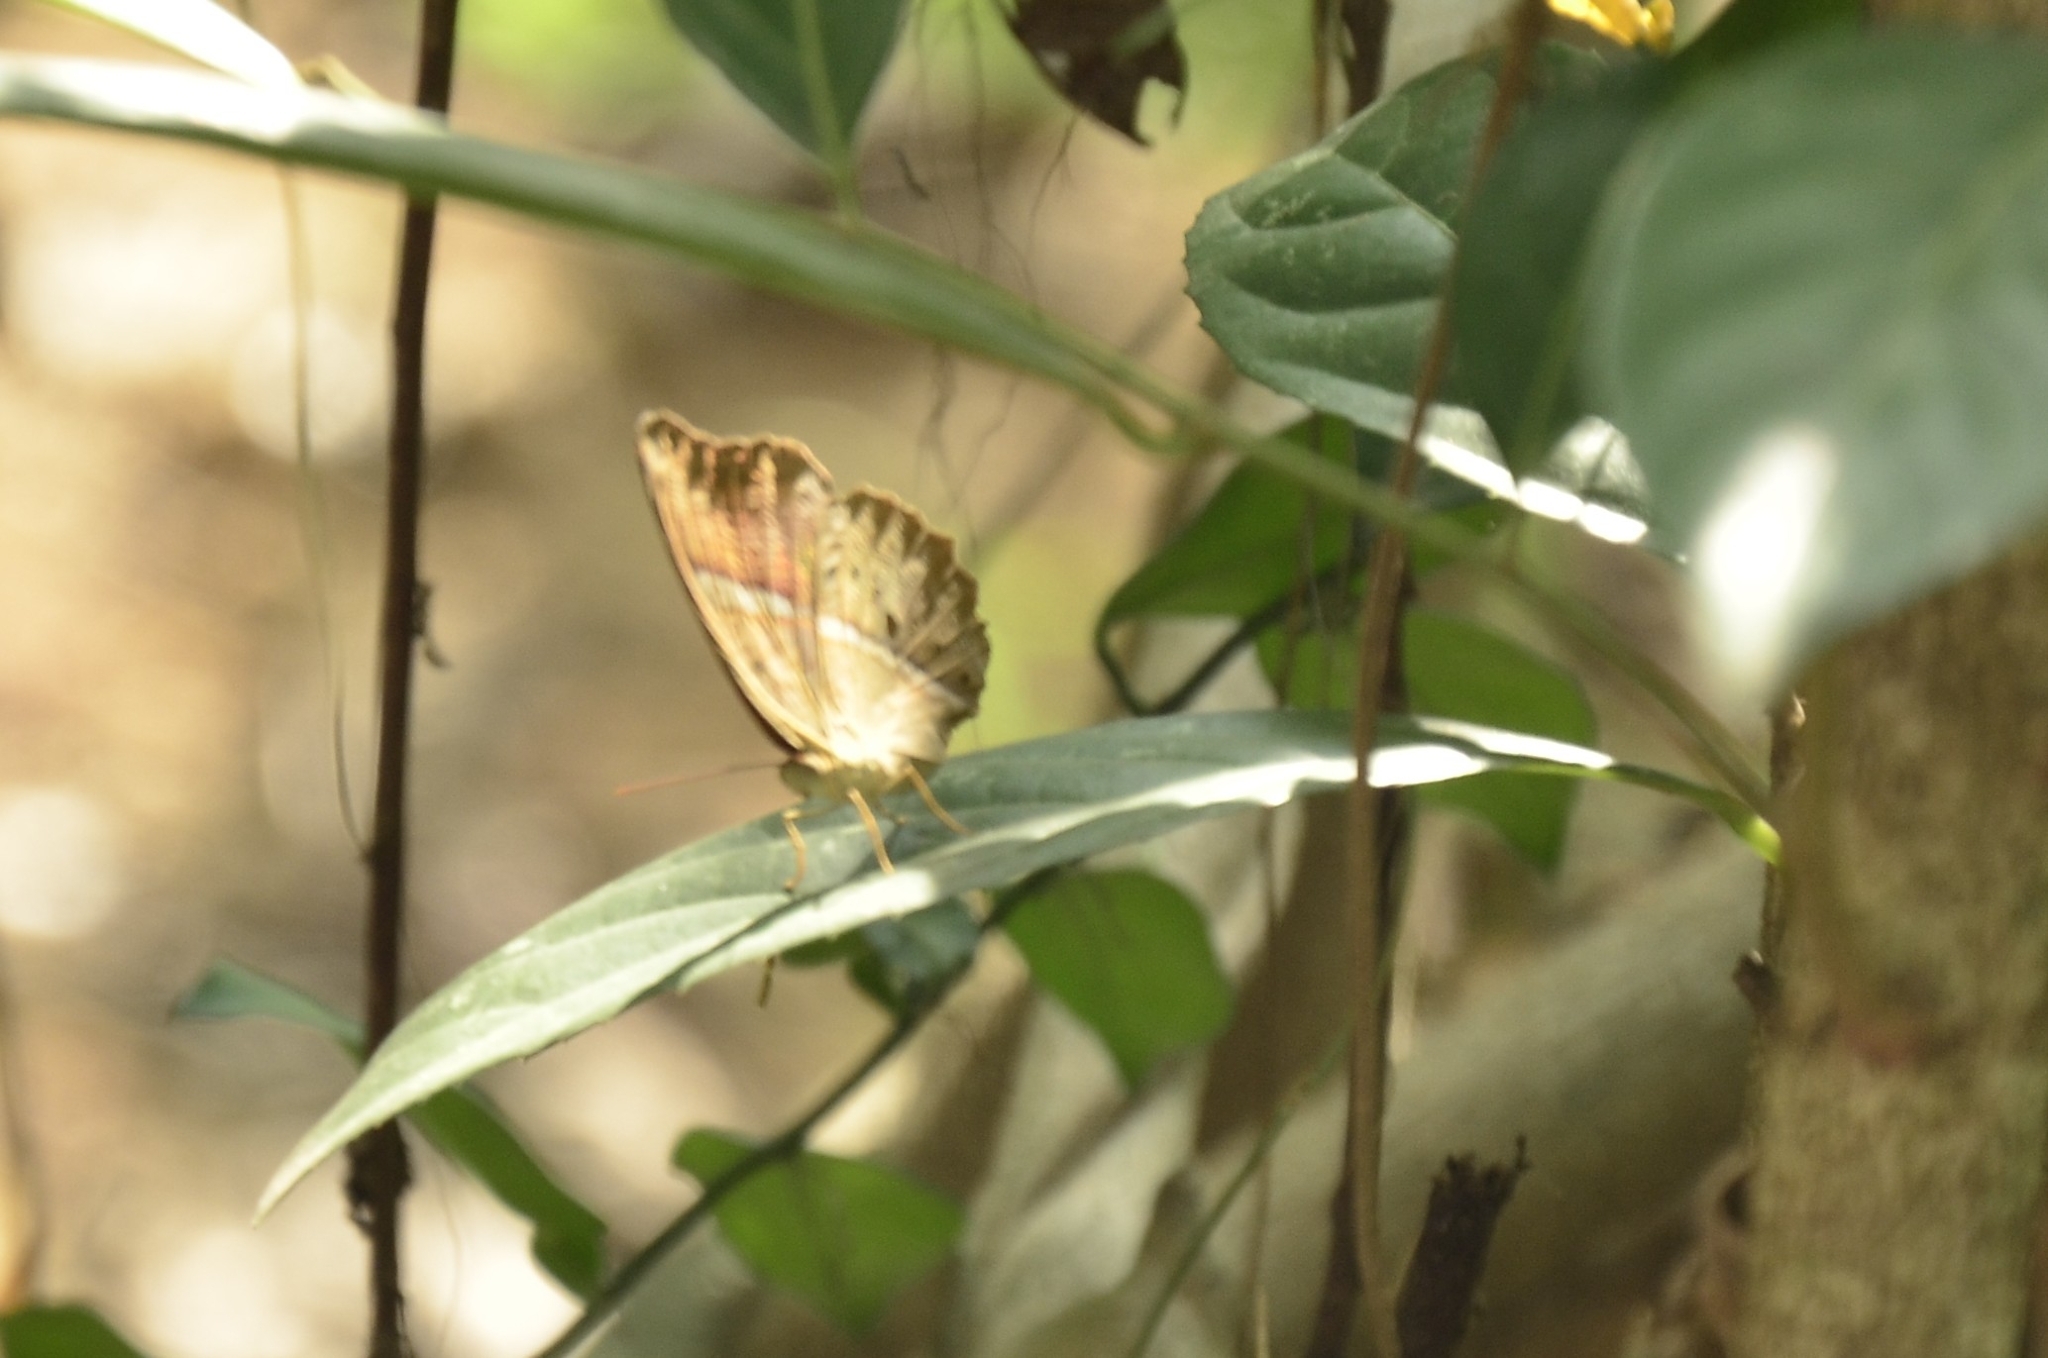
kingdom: Animalia
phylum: Arthropoda
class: Insecta
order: Lepidoptera
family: Nymphalidae
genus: Cirrochroa
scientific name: Cirrochroa thais
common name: Tamil yeoman
